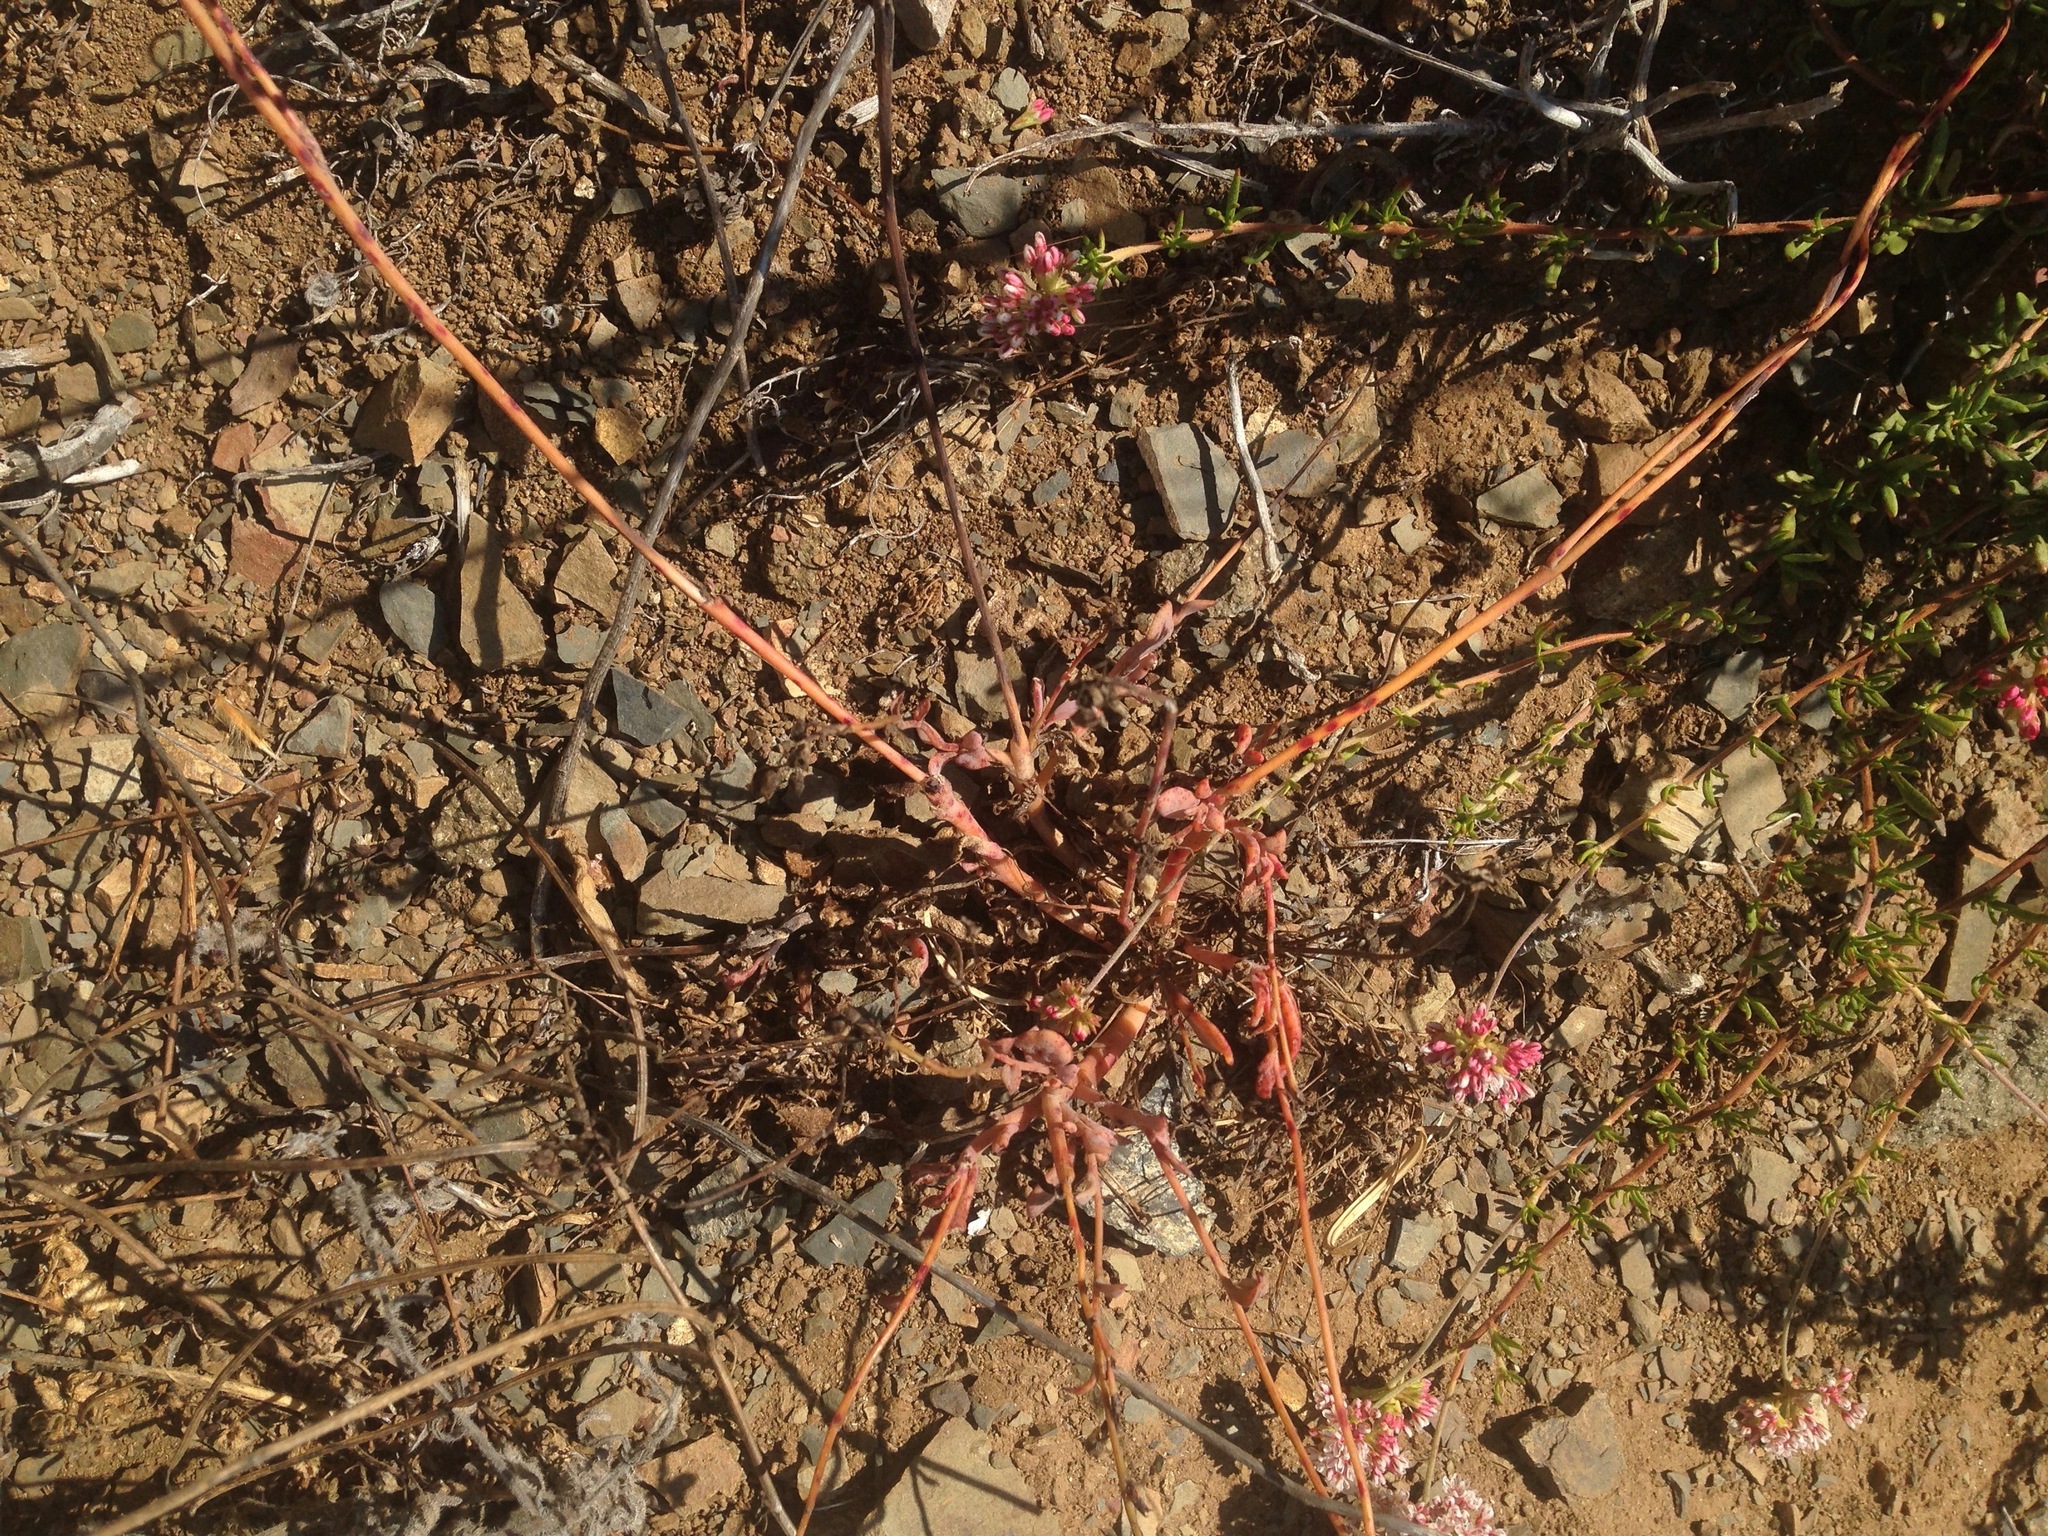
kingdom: Plantae
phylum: Tracheophyta
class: Magnoliopsida
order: Caryophyllales
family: Montiaceae
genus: Cistanthe
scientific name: Cistanthe maritima
